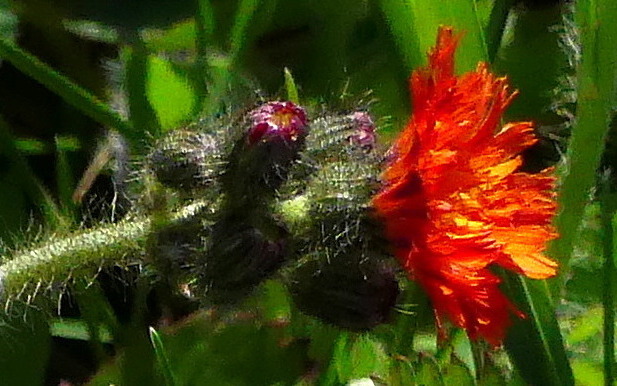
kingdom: Plantae
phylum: Tracheophyta
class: Magnoliopsida
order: Asterales
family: Asteraceae
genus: Pilosella
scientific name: Pilosella aurantiaca
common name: Fox-and-cubs
